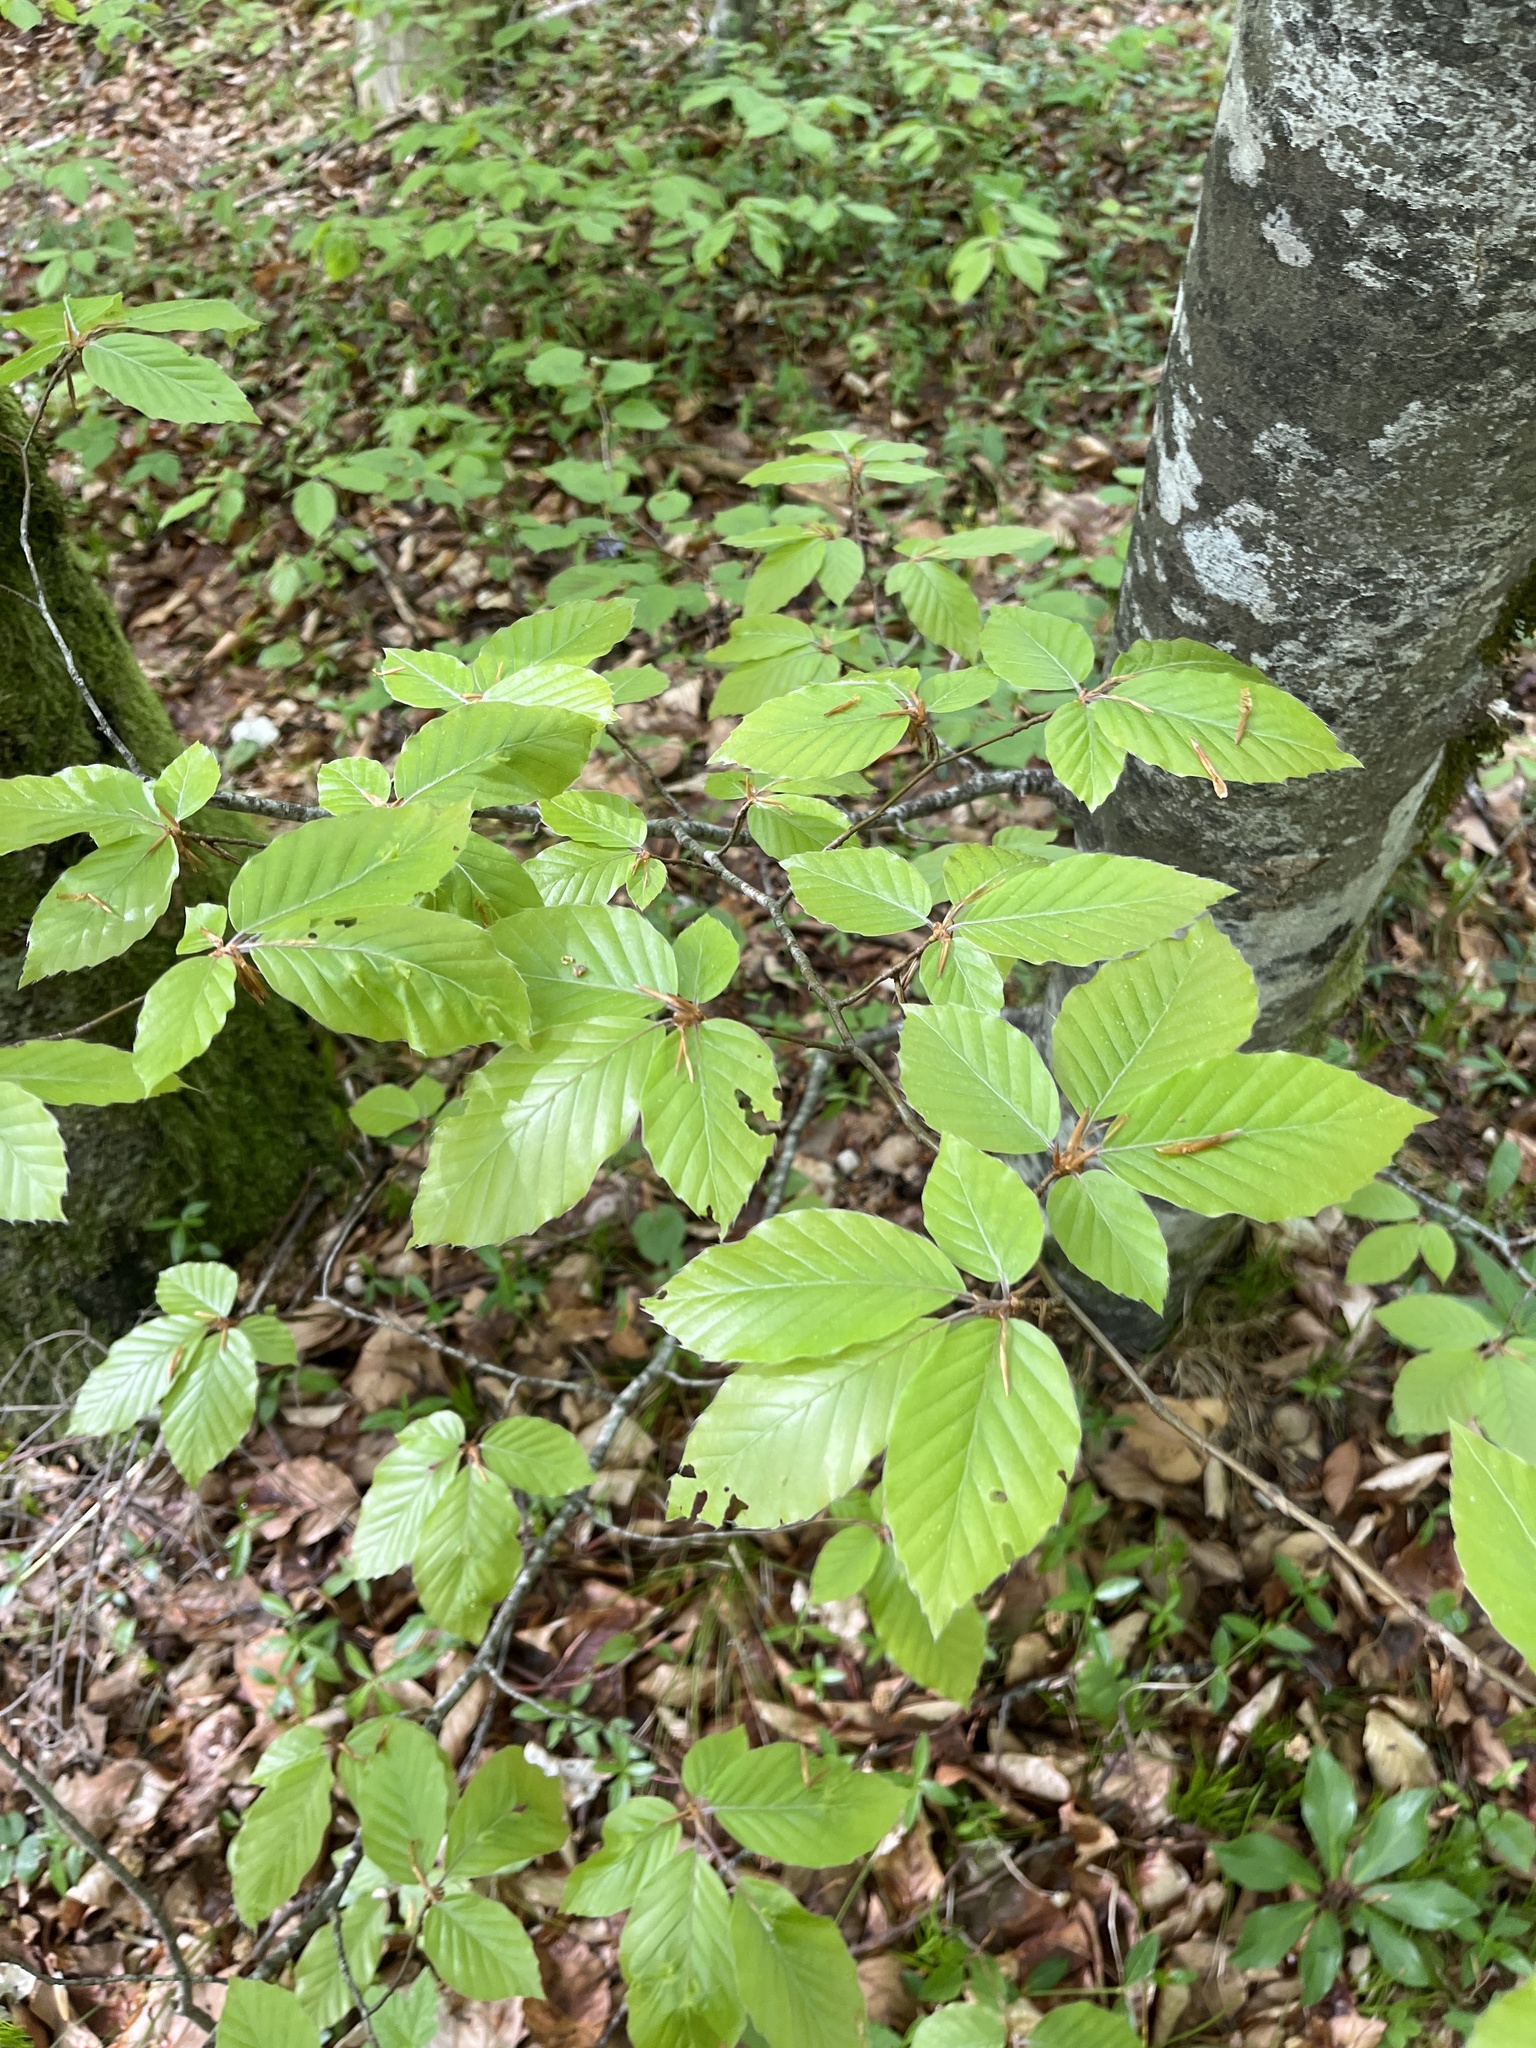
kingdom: Plantae
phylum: Tracheophyta
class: Magnoliopsida
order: Fagales
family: Fagaceae
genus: Fagus
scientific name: Fagus sylvatica
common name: Beech
